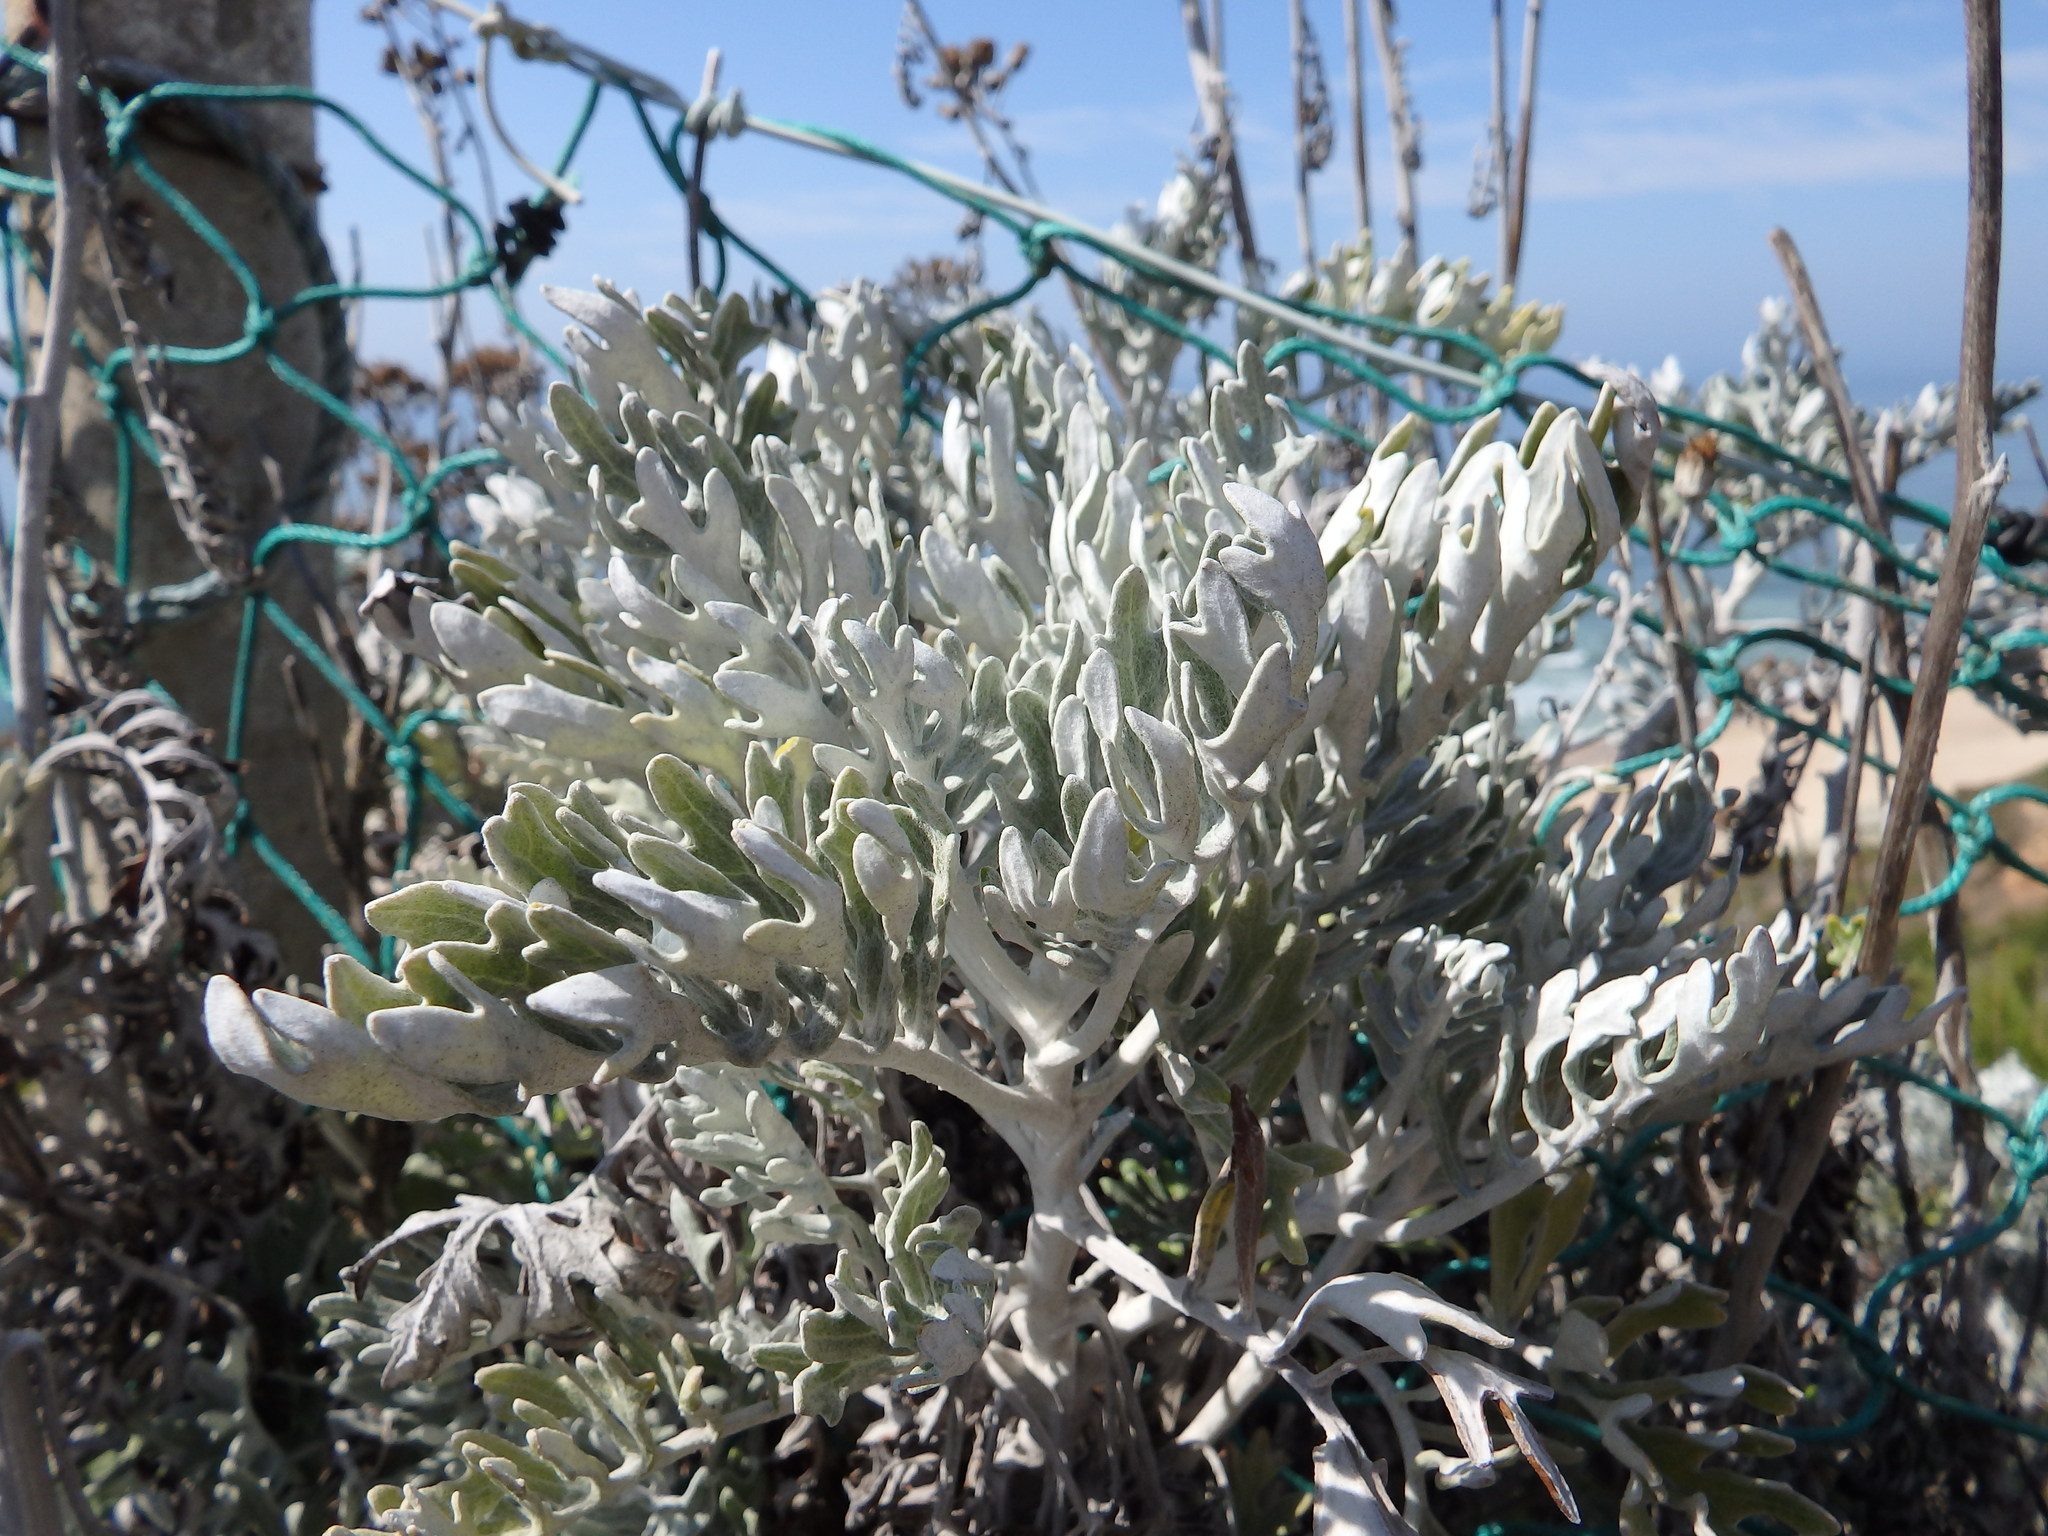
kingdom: Plantae
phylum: Tracheophyta
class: Magnoliopsida
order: Asterales
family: Asteraceae
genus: Jacobaea
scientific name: Jacobaea maritima
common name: Silver ragwort
